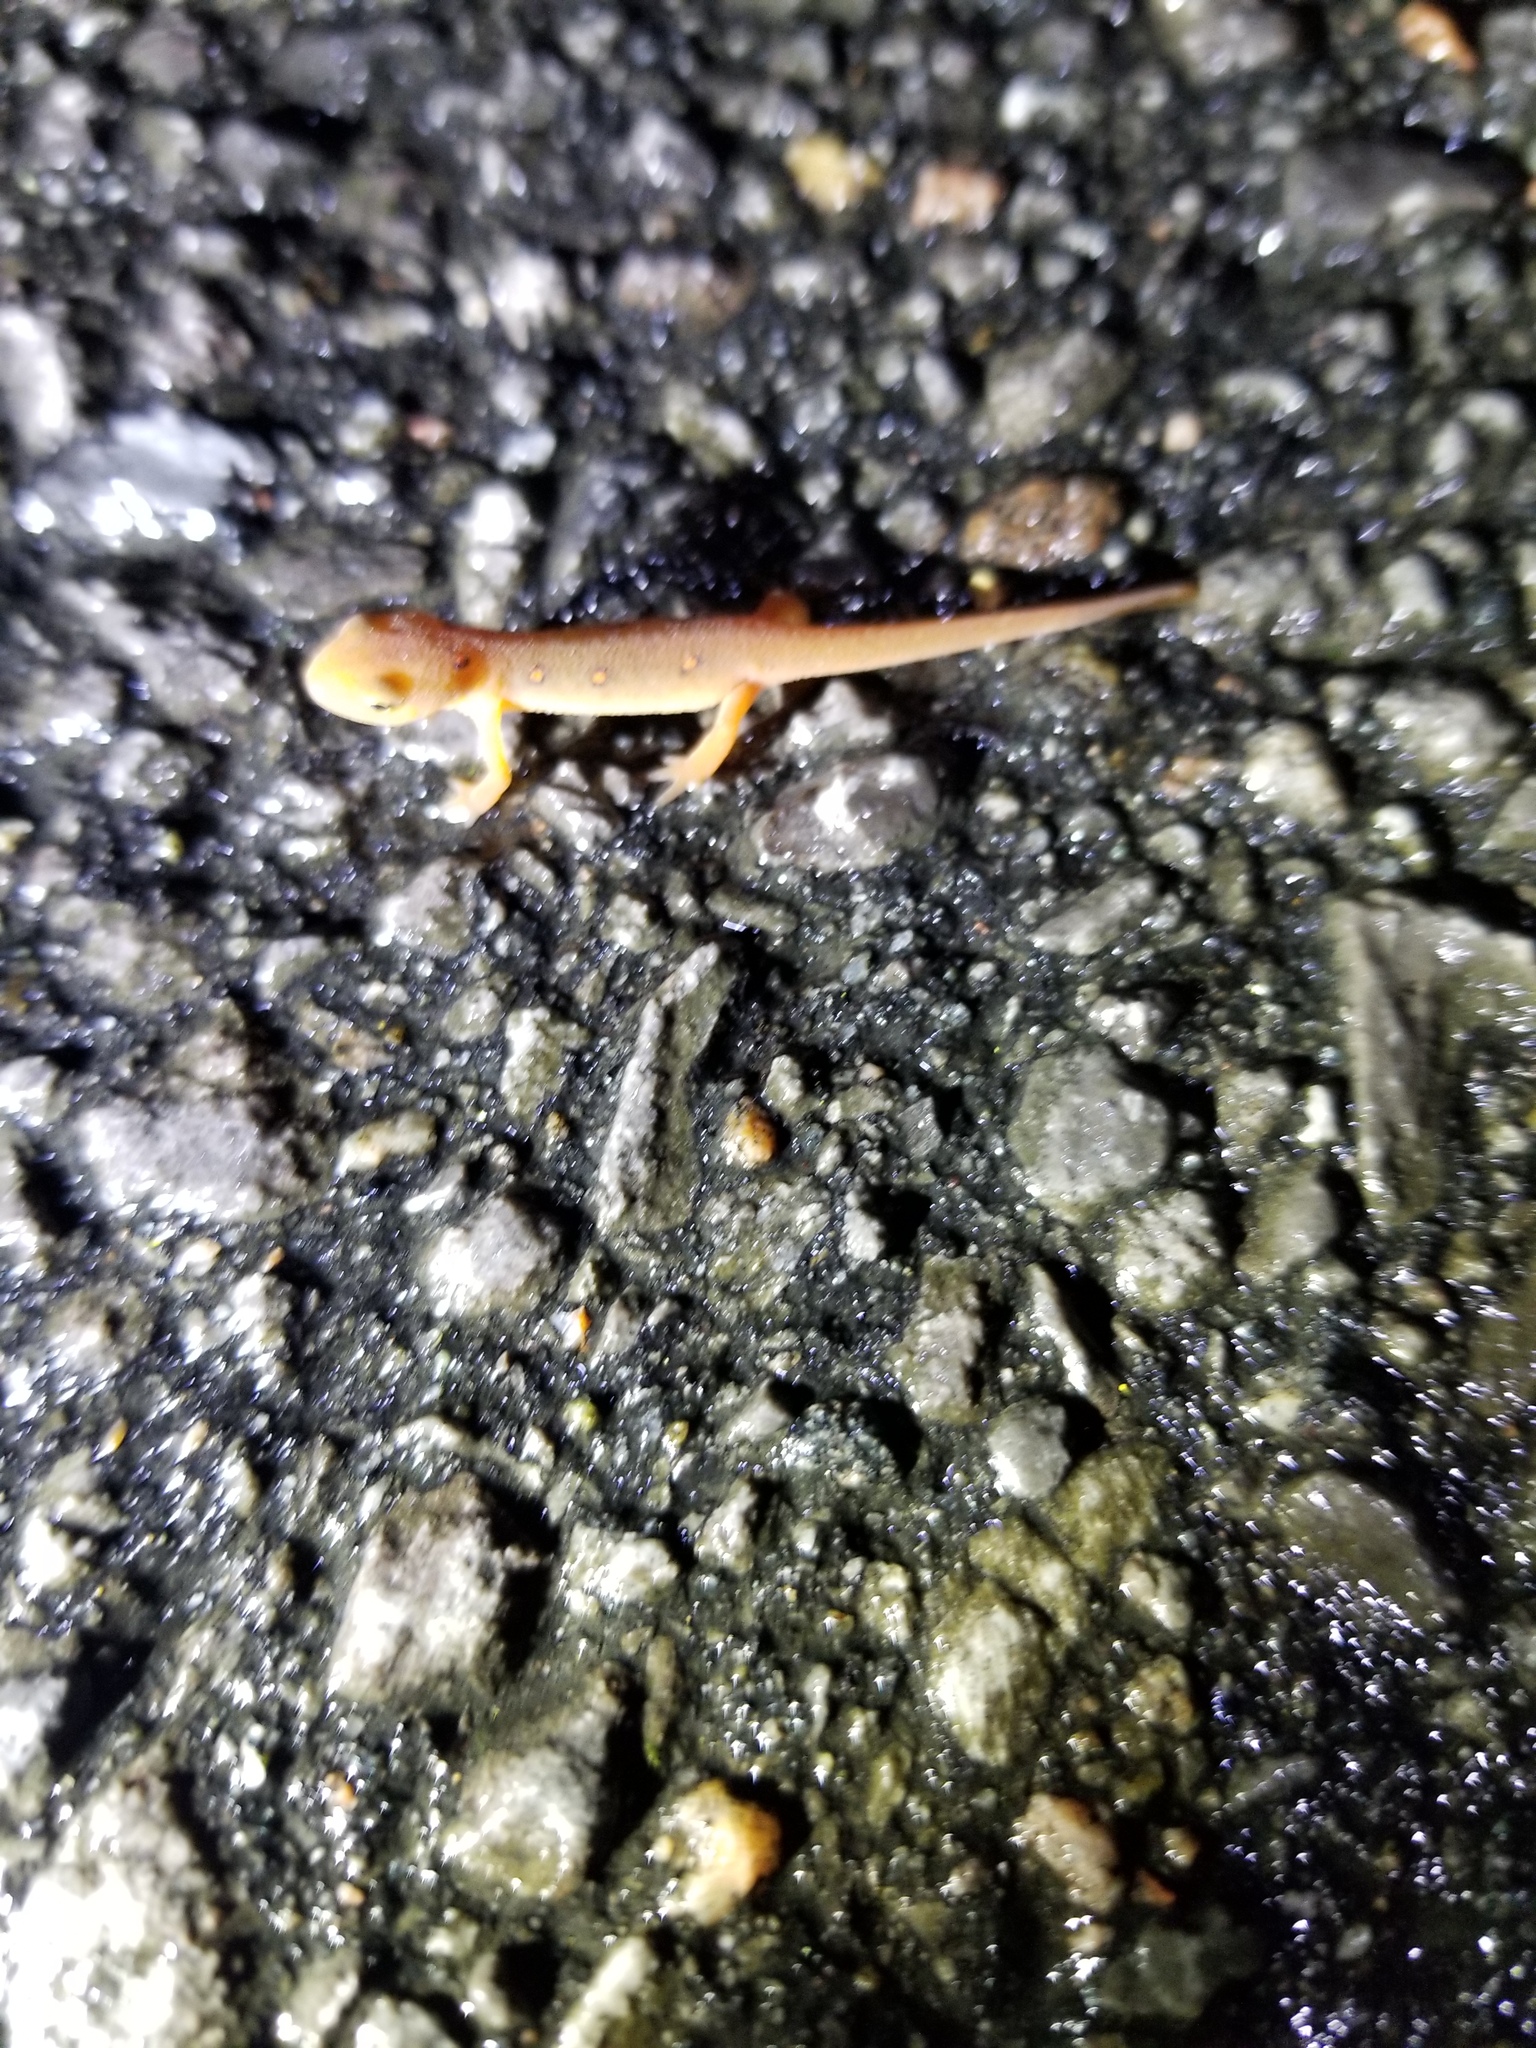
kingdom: Animalia
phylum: Chordata
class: Amphibia
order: Caudata
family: Salamandridae
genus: Notophthalmus
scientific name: Notophthalmus viridescens
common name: Eastern newt
